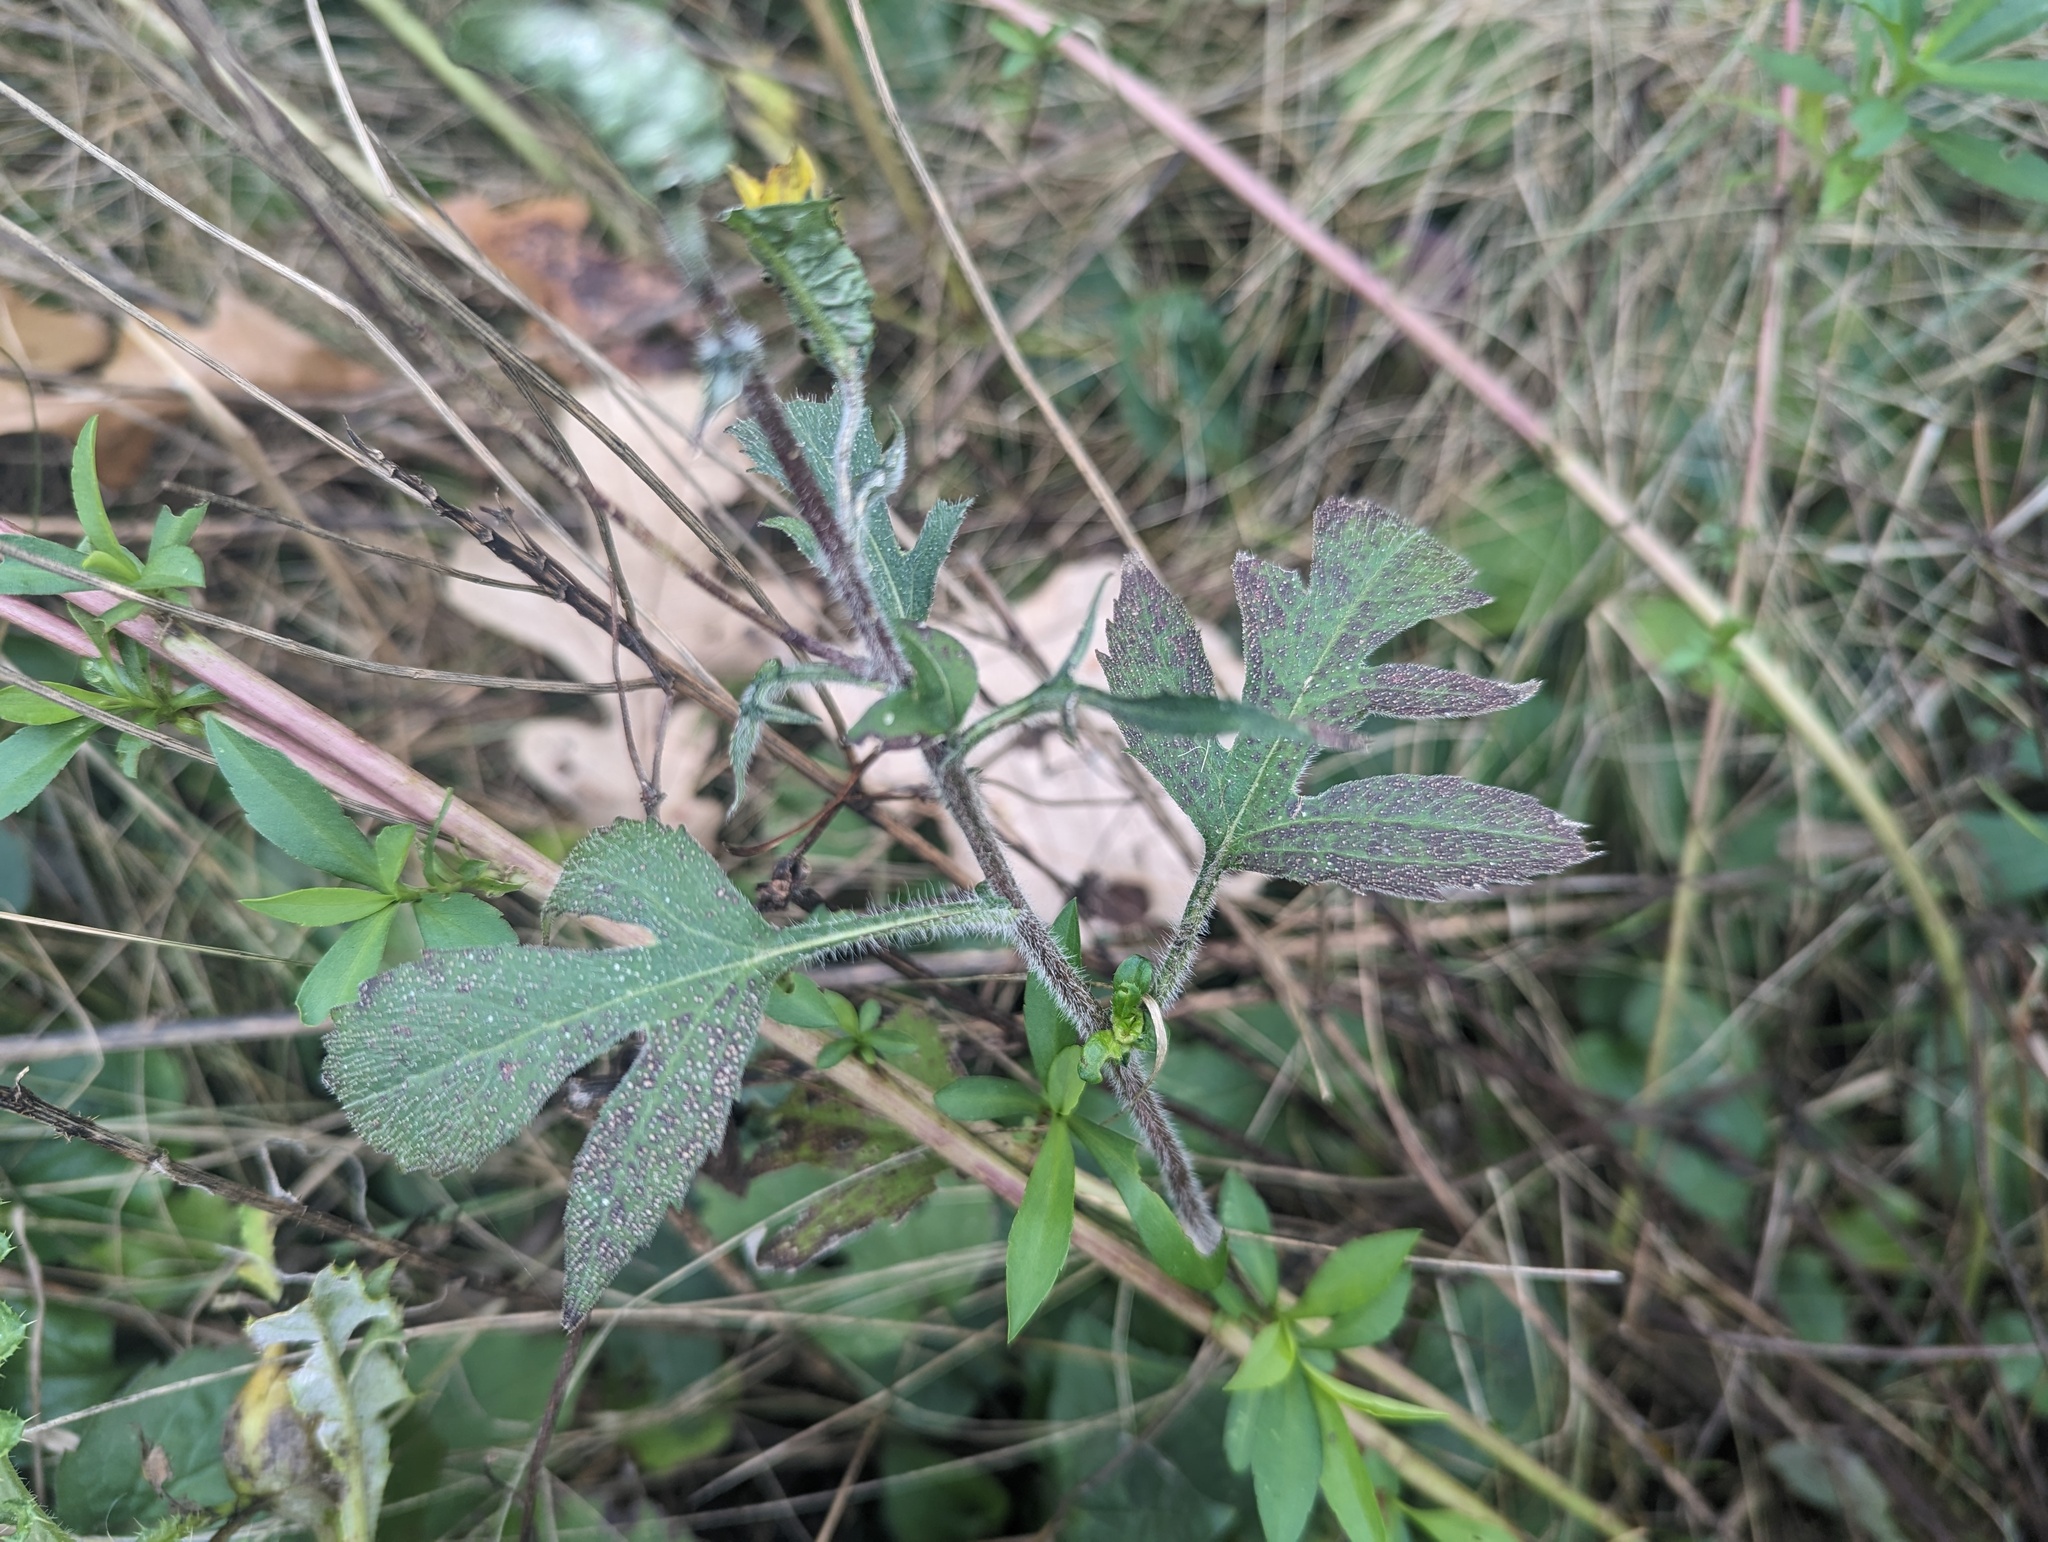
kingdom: Plantae
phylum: Tracheophyta
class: Magnoliopsida
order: Asterales
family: Asteraceae
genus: Rudbeckia
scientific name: Rudbeckia triloba
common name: Thin-leaved coneflower
